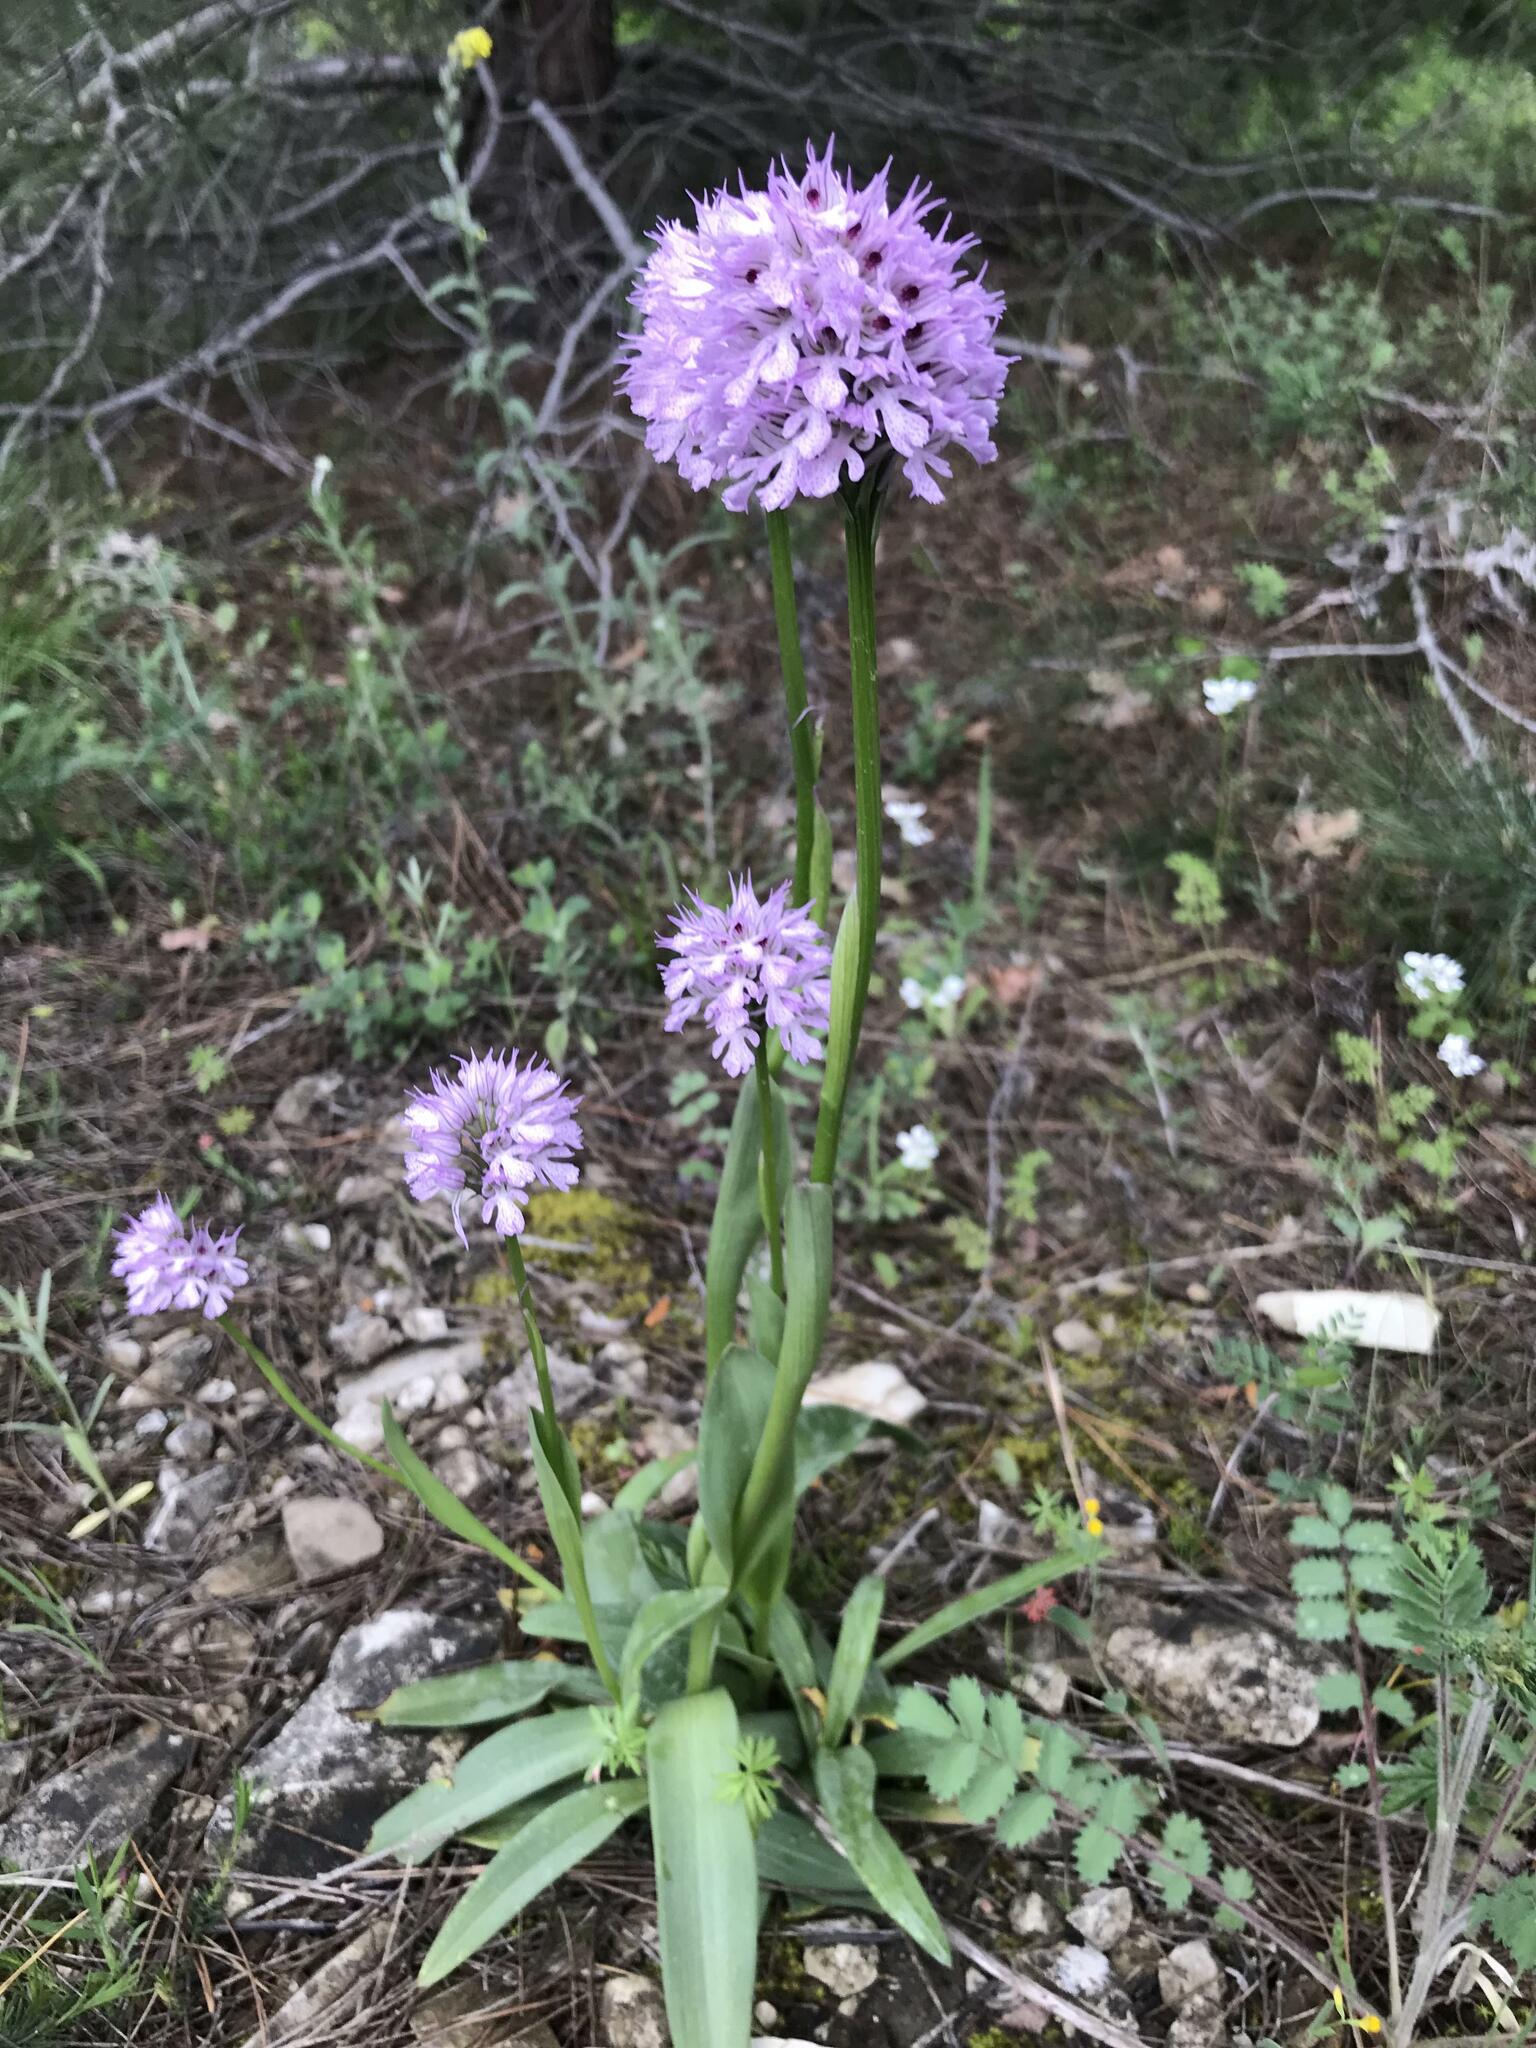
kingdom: Plantae
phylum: Tracheophyta
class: Liliopsida
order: Asparagales
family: Orchidaceae
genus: Neotinea
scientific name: Neotinea tridentata
